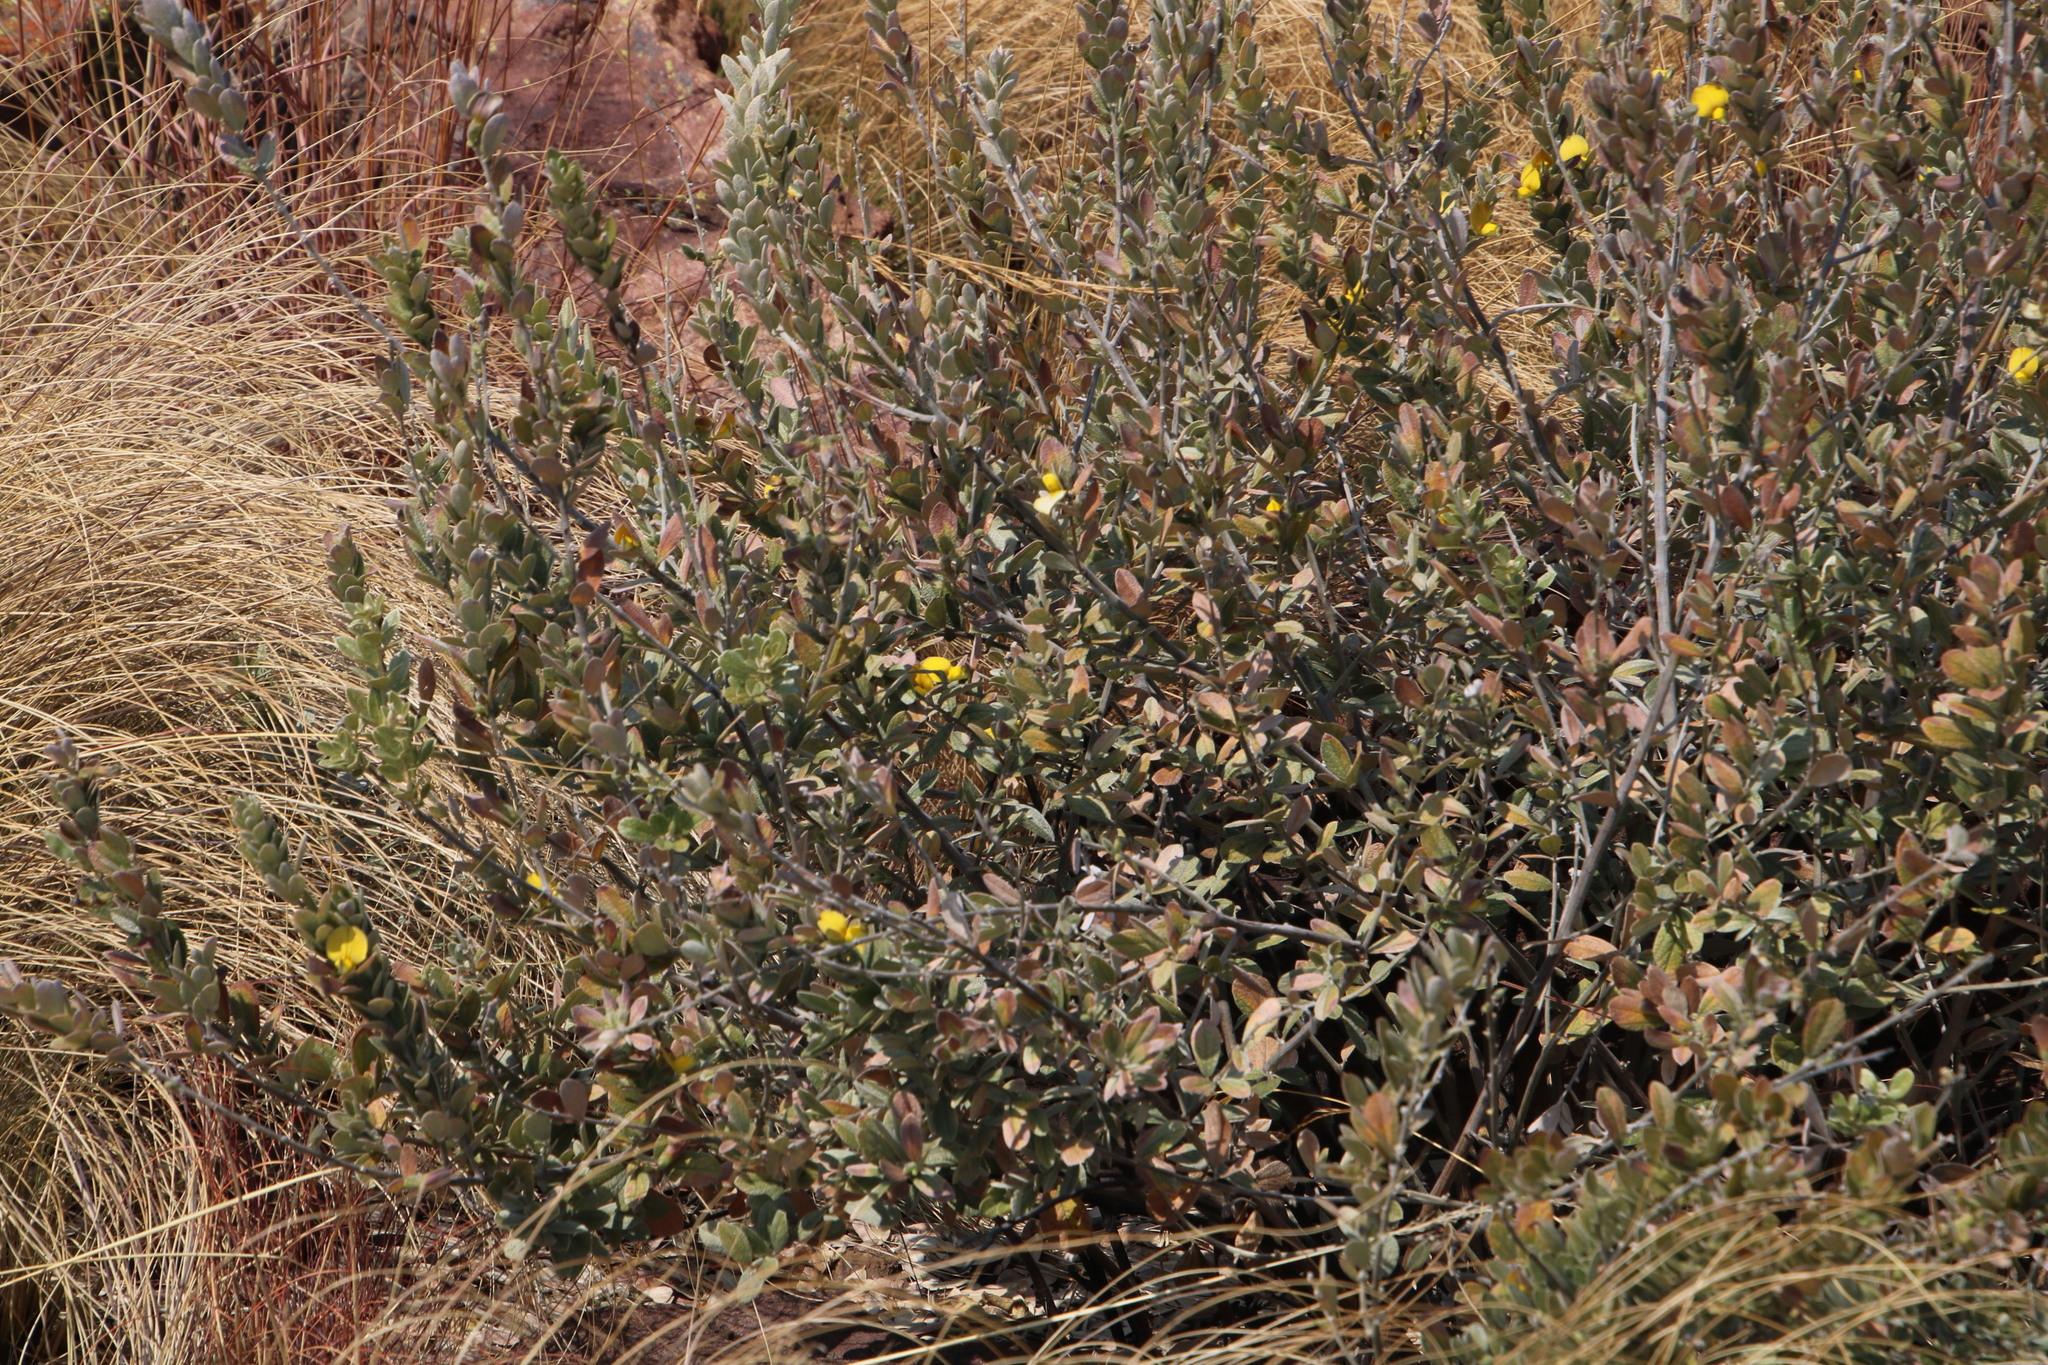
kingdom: Plantae
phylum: Tracheophyta
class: Magnoliopsida
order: Fabales
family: Fabaceae
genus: Rhynchosia
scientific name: Rhynchosia nitens
